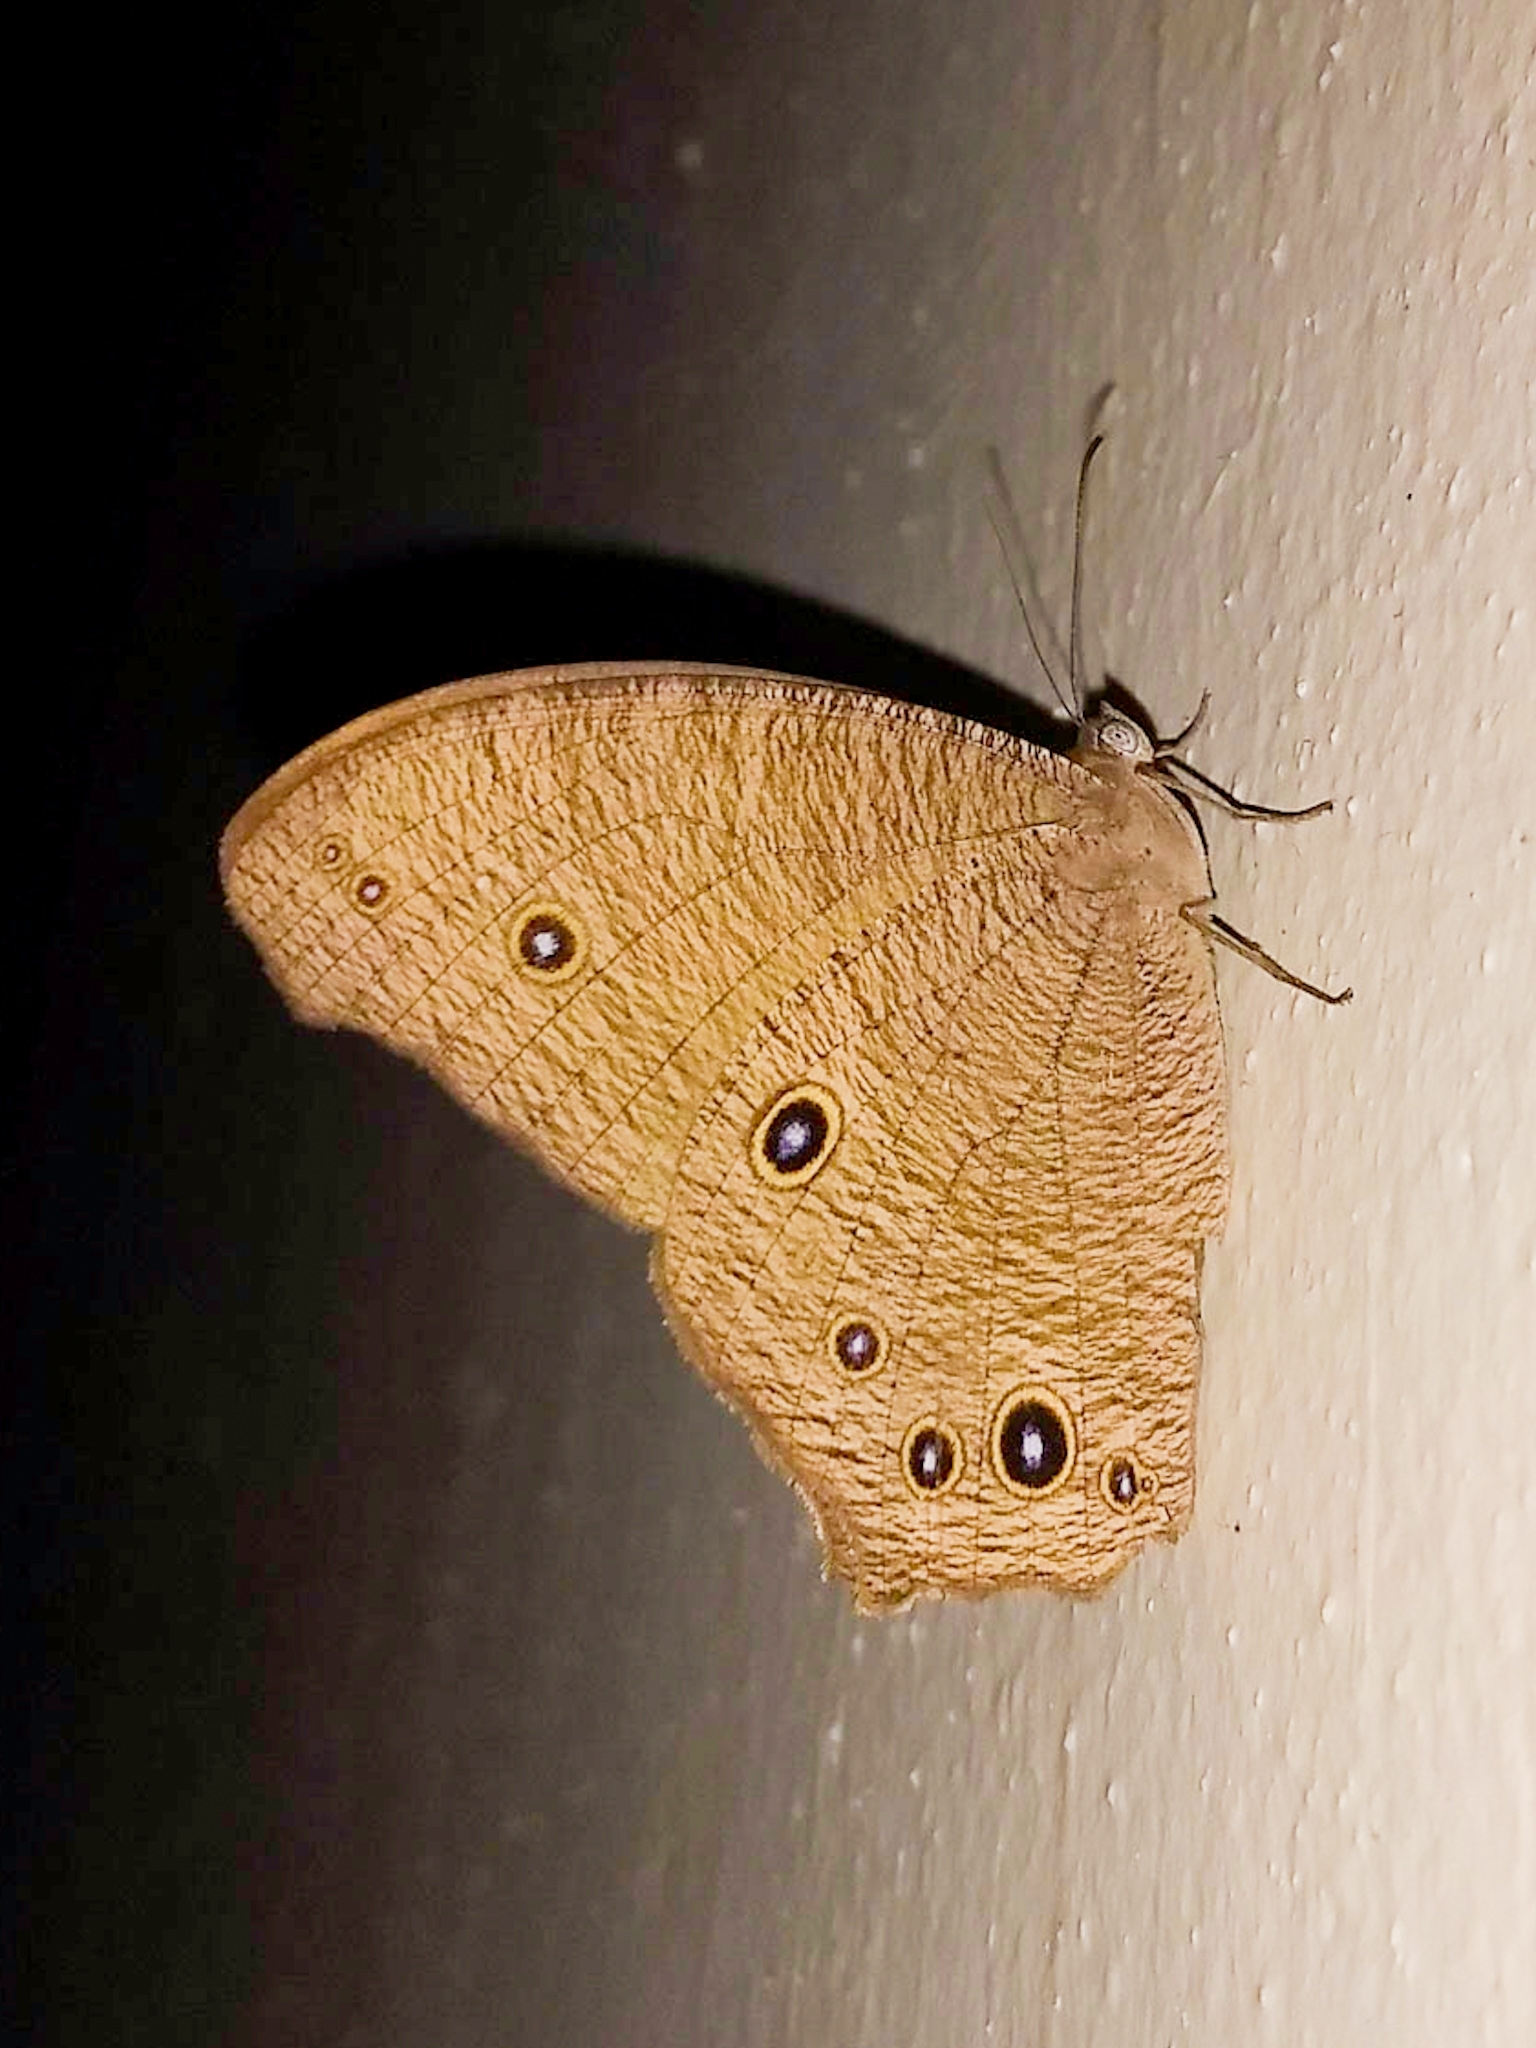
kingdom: Animalia
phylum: Arthropoda
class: Insecta
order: Lepidoptera
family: Nymphalidae
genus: Melanitis
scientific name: Melanitis leda
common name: Twilight brown
